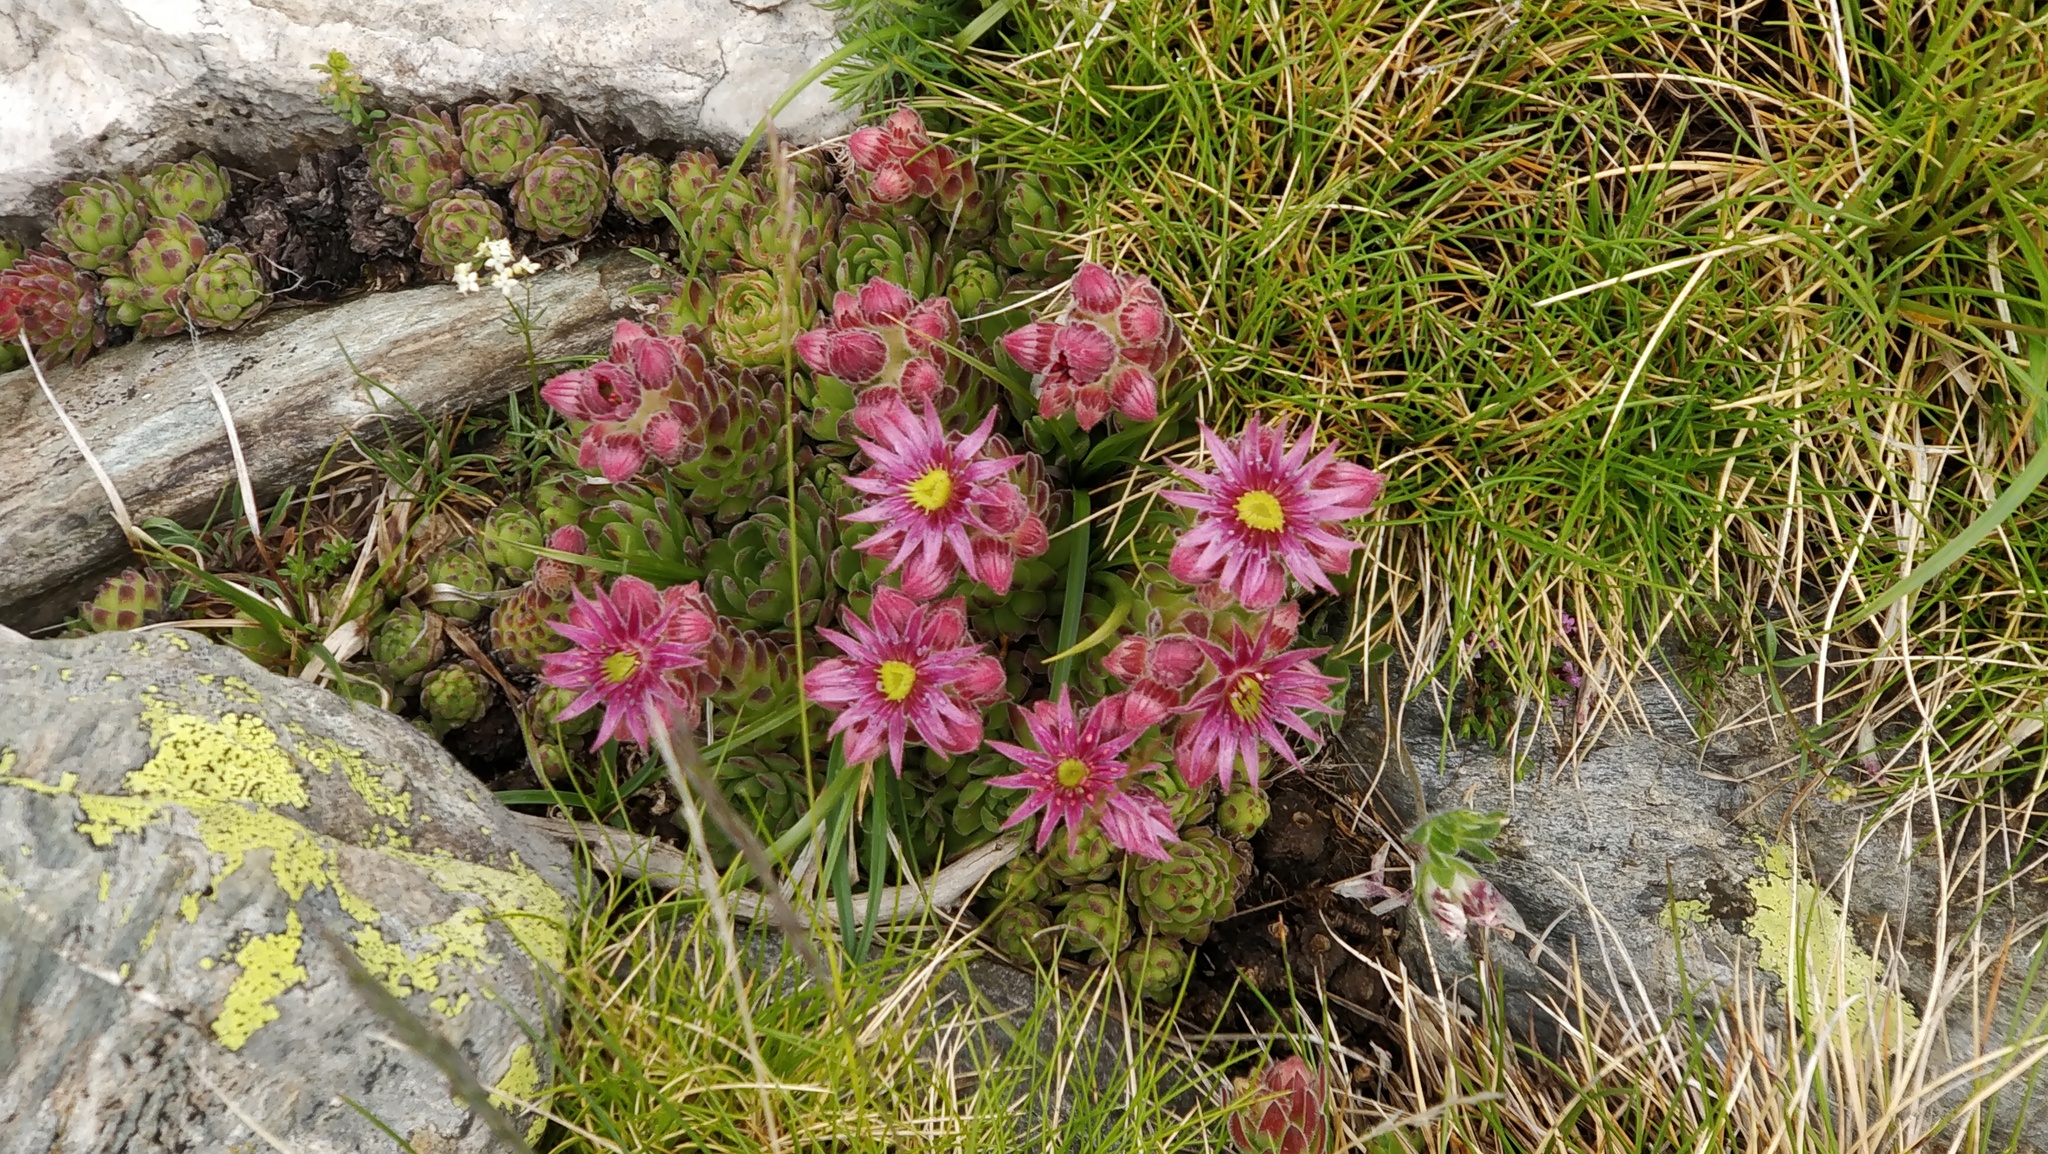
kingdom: Plantae
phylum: Tracheophyta
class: Magnoliopsida
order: Saxifragales
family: Crassulaceae
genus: Sempervivum
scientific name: Sempervivum montanum
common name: Mountain house-leek
